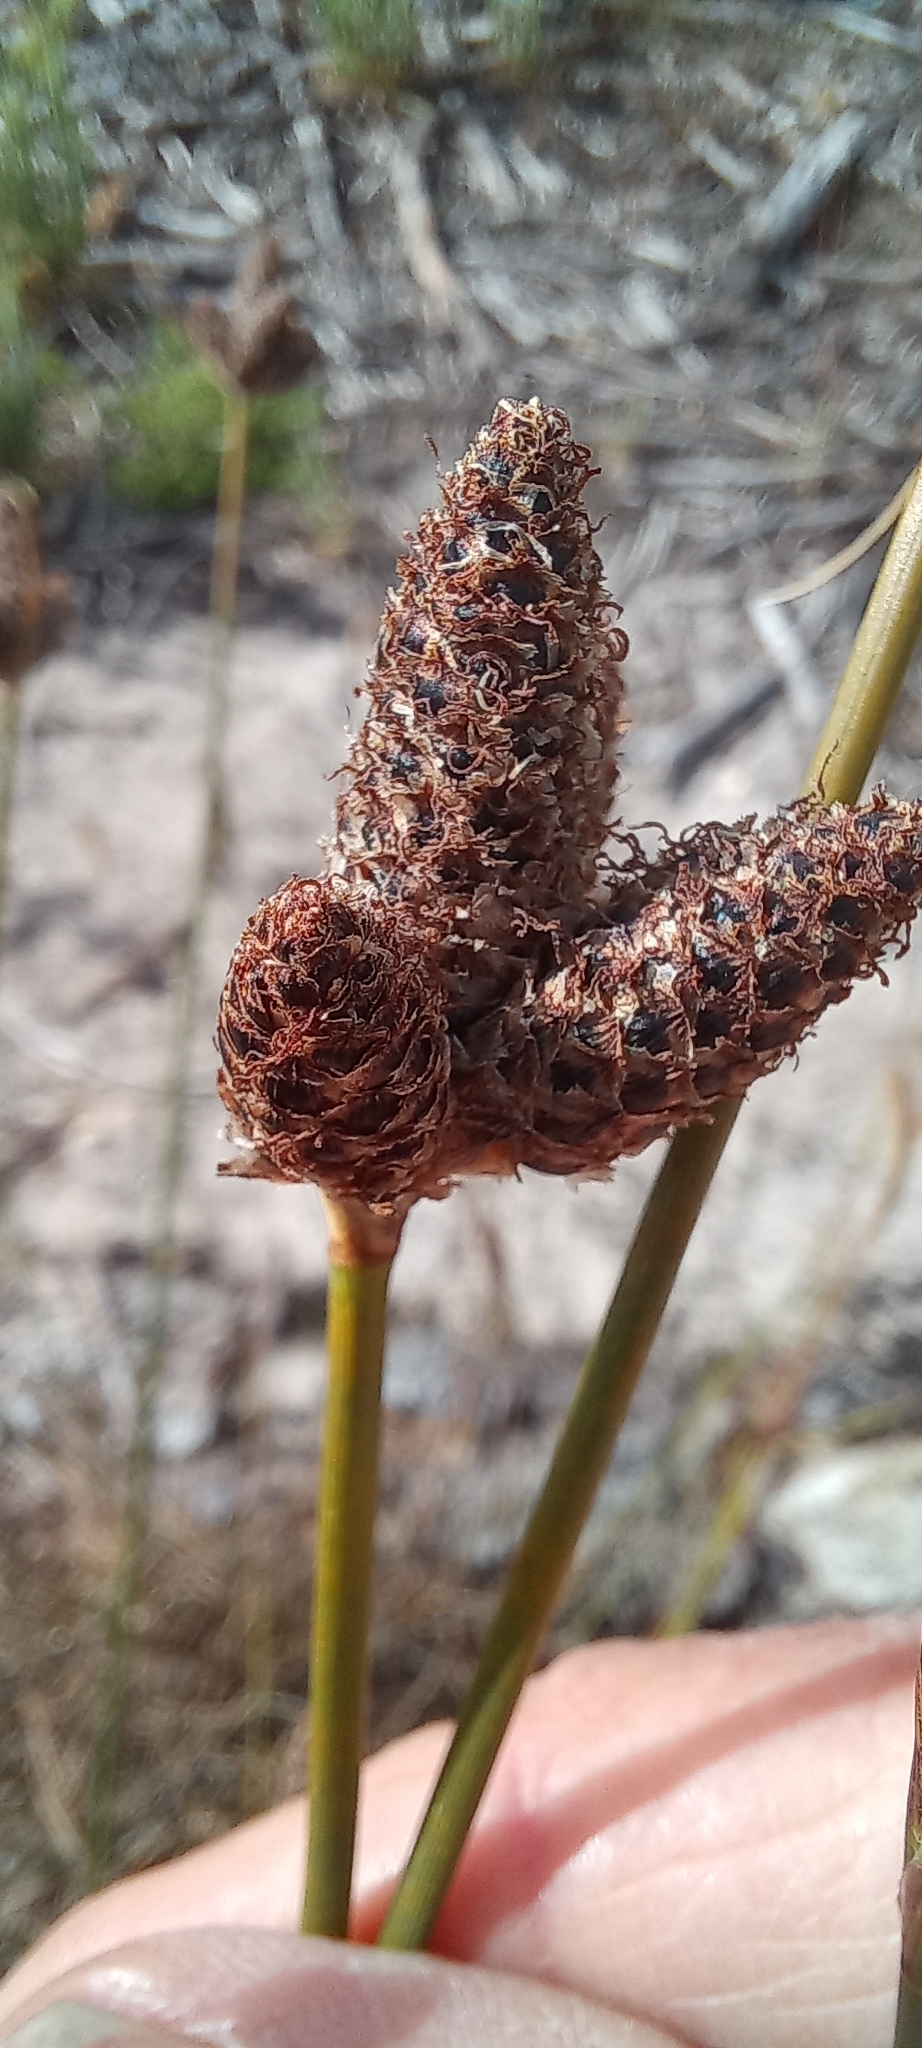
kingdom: Plantae
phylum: Tracheophyta
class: Liliopsida
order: Poales
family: Cyperaceae
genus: Hellmuthia
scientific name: Hellmuthia membranacea
